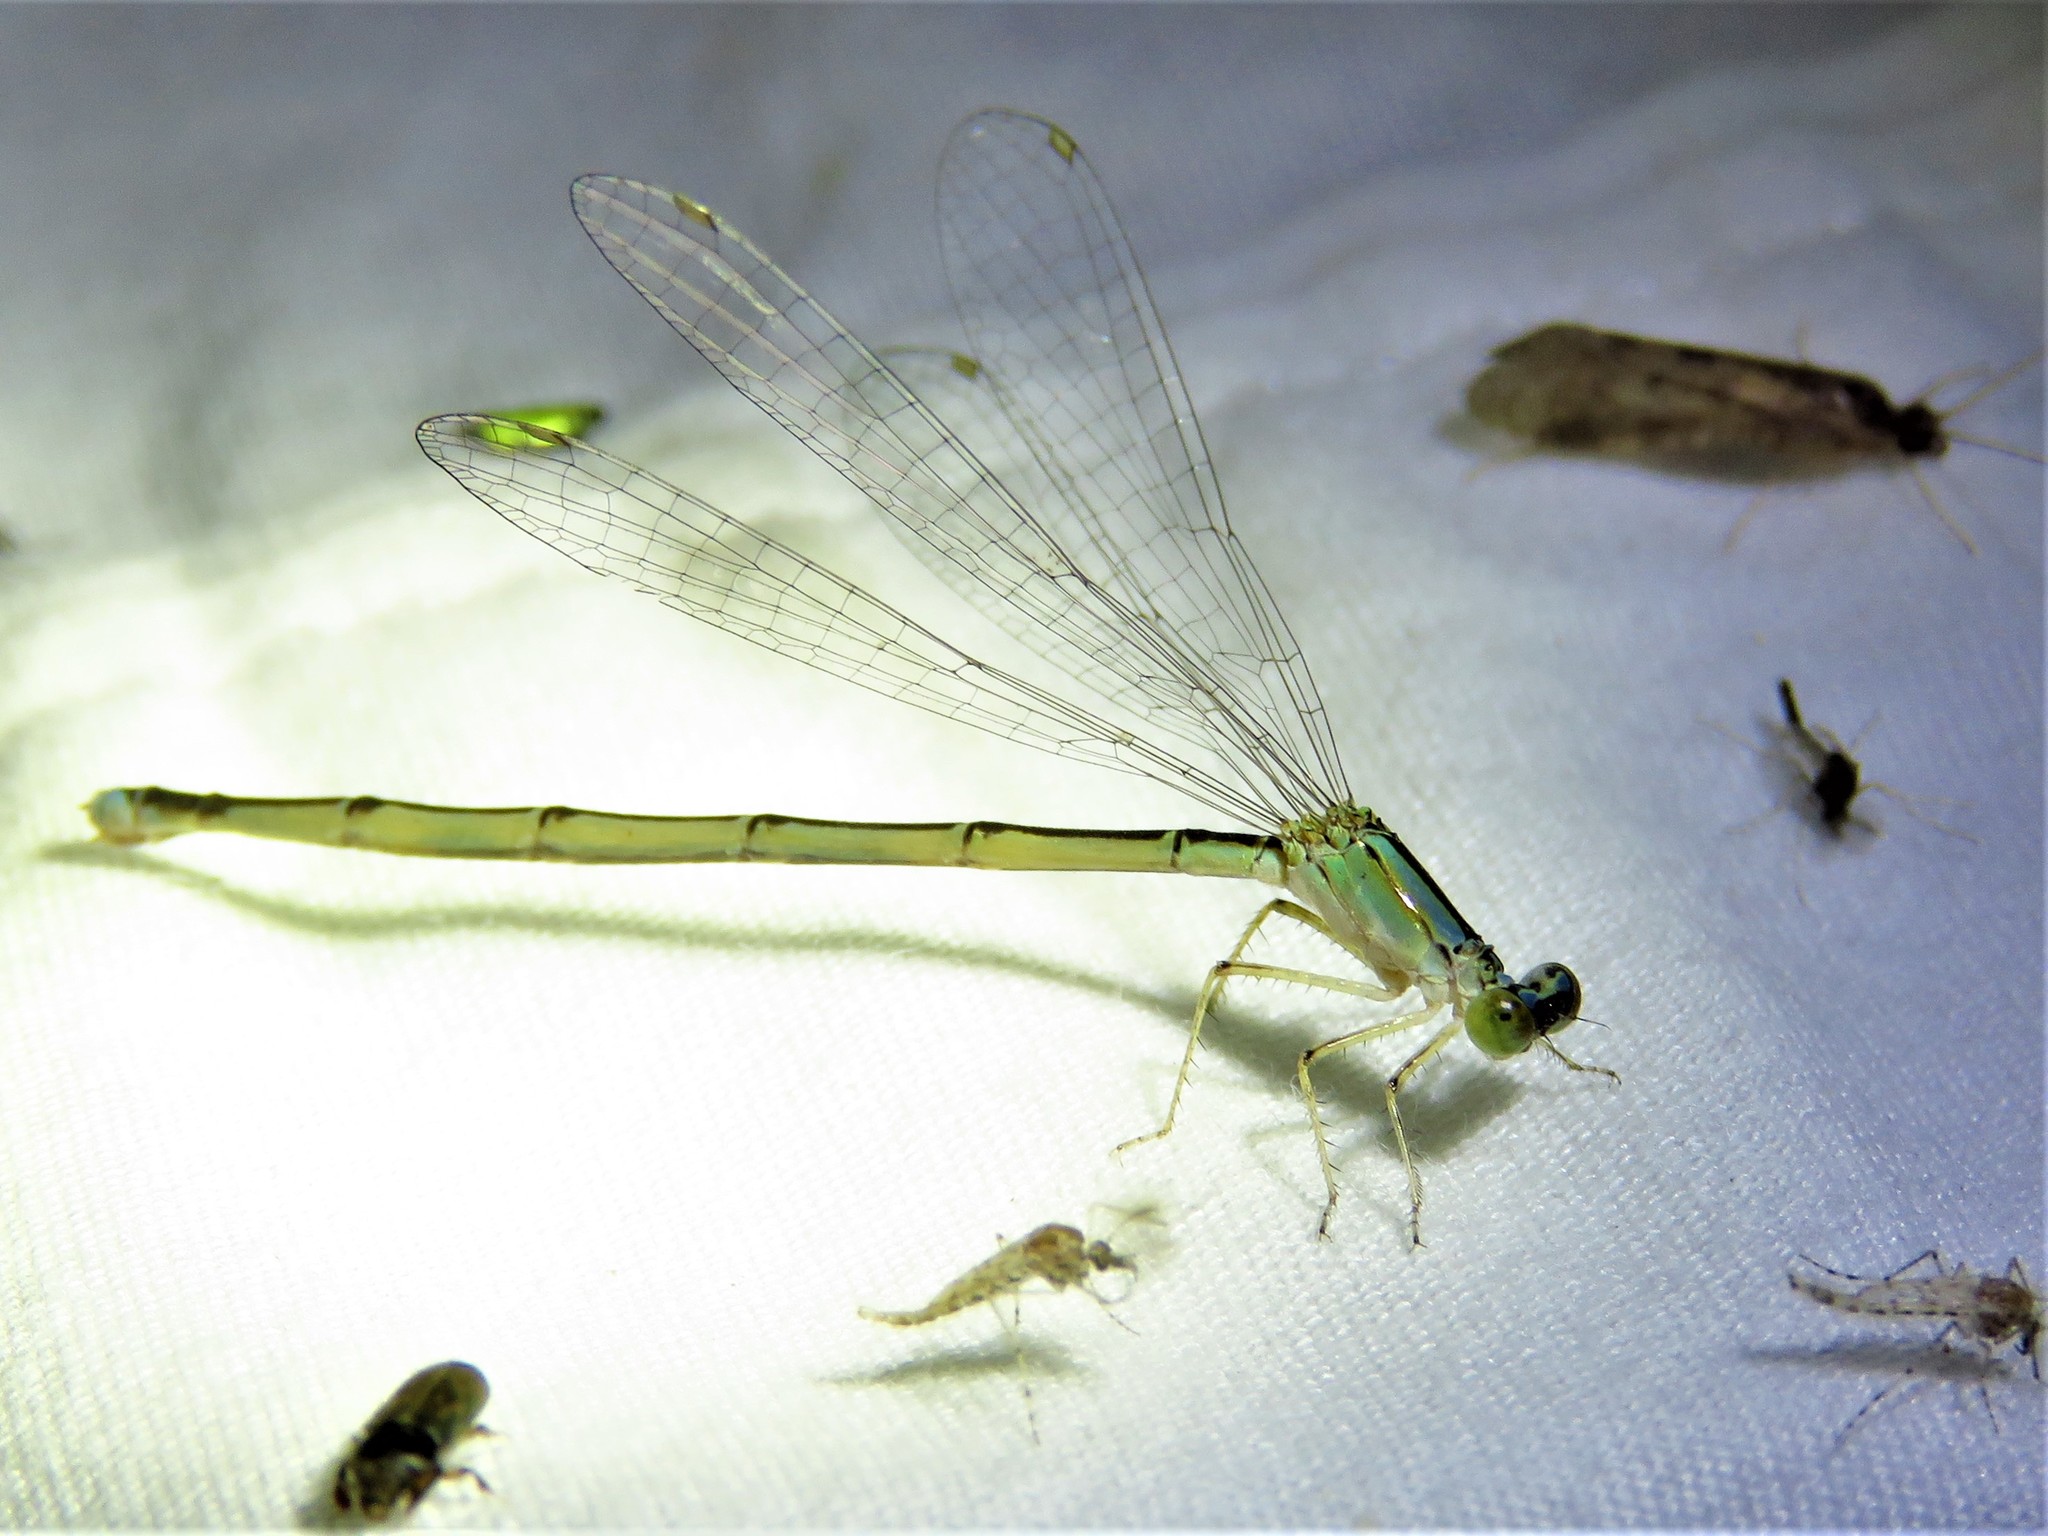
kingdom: Animalia
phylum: Arthropoda
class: Insecta
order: Odonata
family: Coenagrionidae
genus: Enallagma
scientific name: Enallagma vesperum
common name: Vesper bluet
